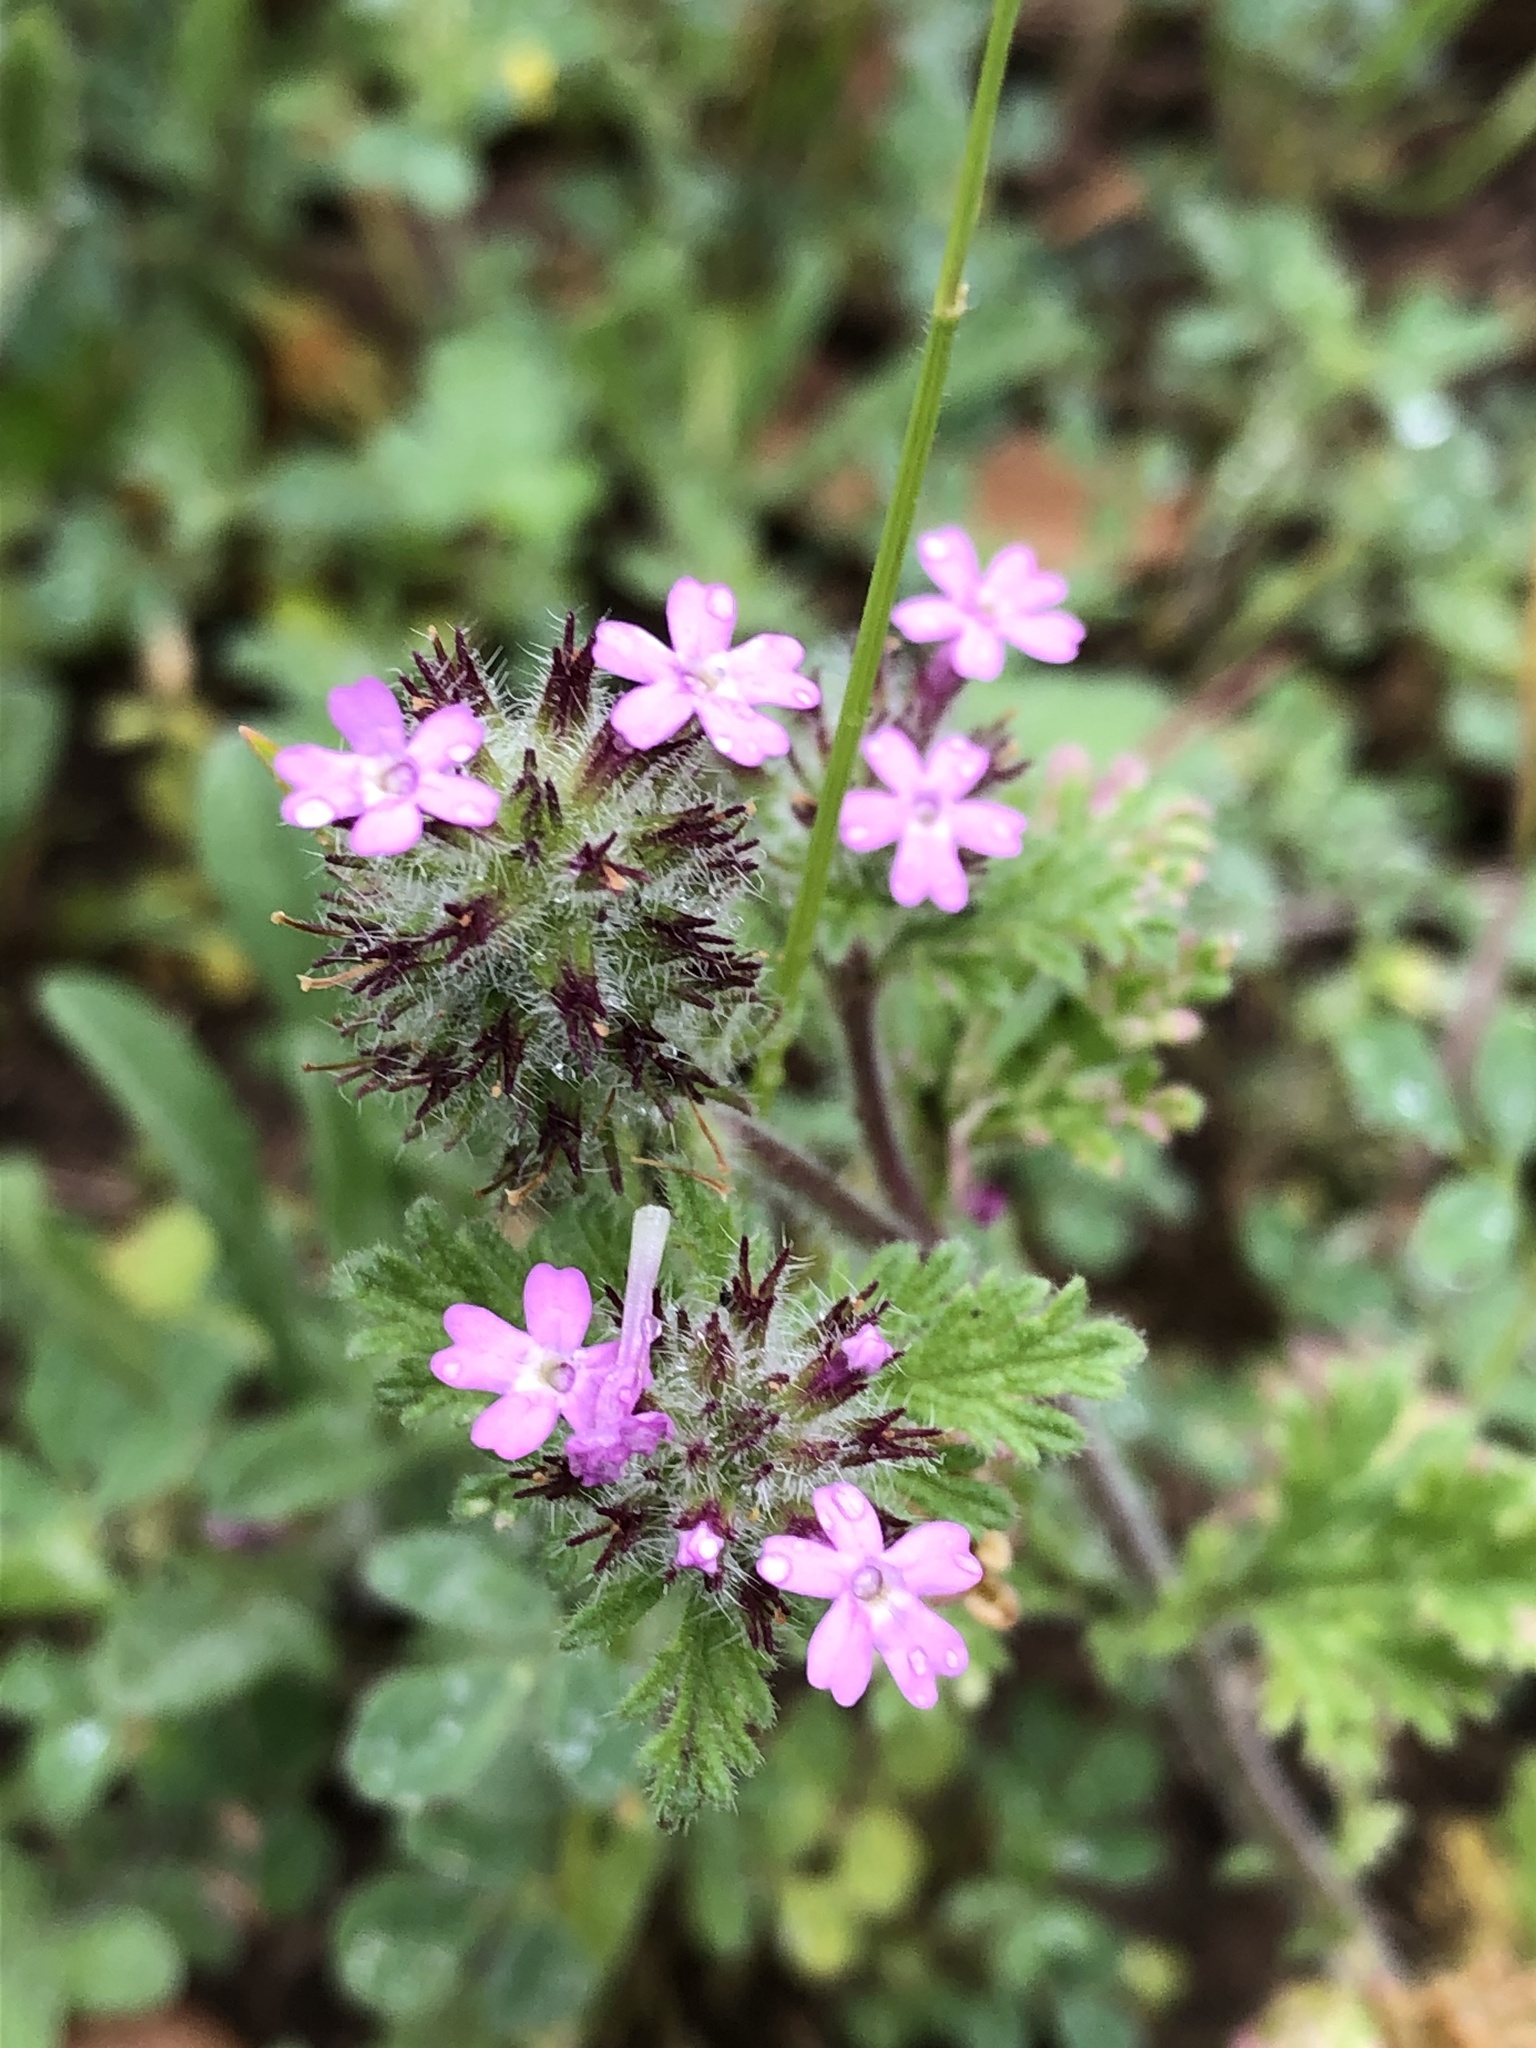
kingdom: Plantae
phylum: Tracheophyta
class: Magnoliopsida
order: Lamiales
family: Verbenaceae
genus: Verbena
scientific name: Verbena pumila
